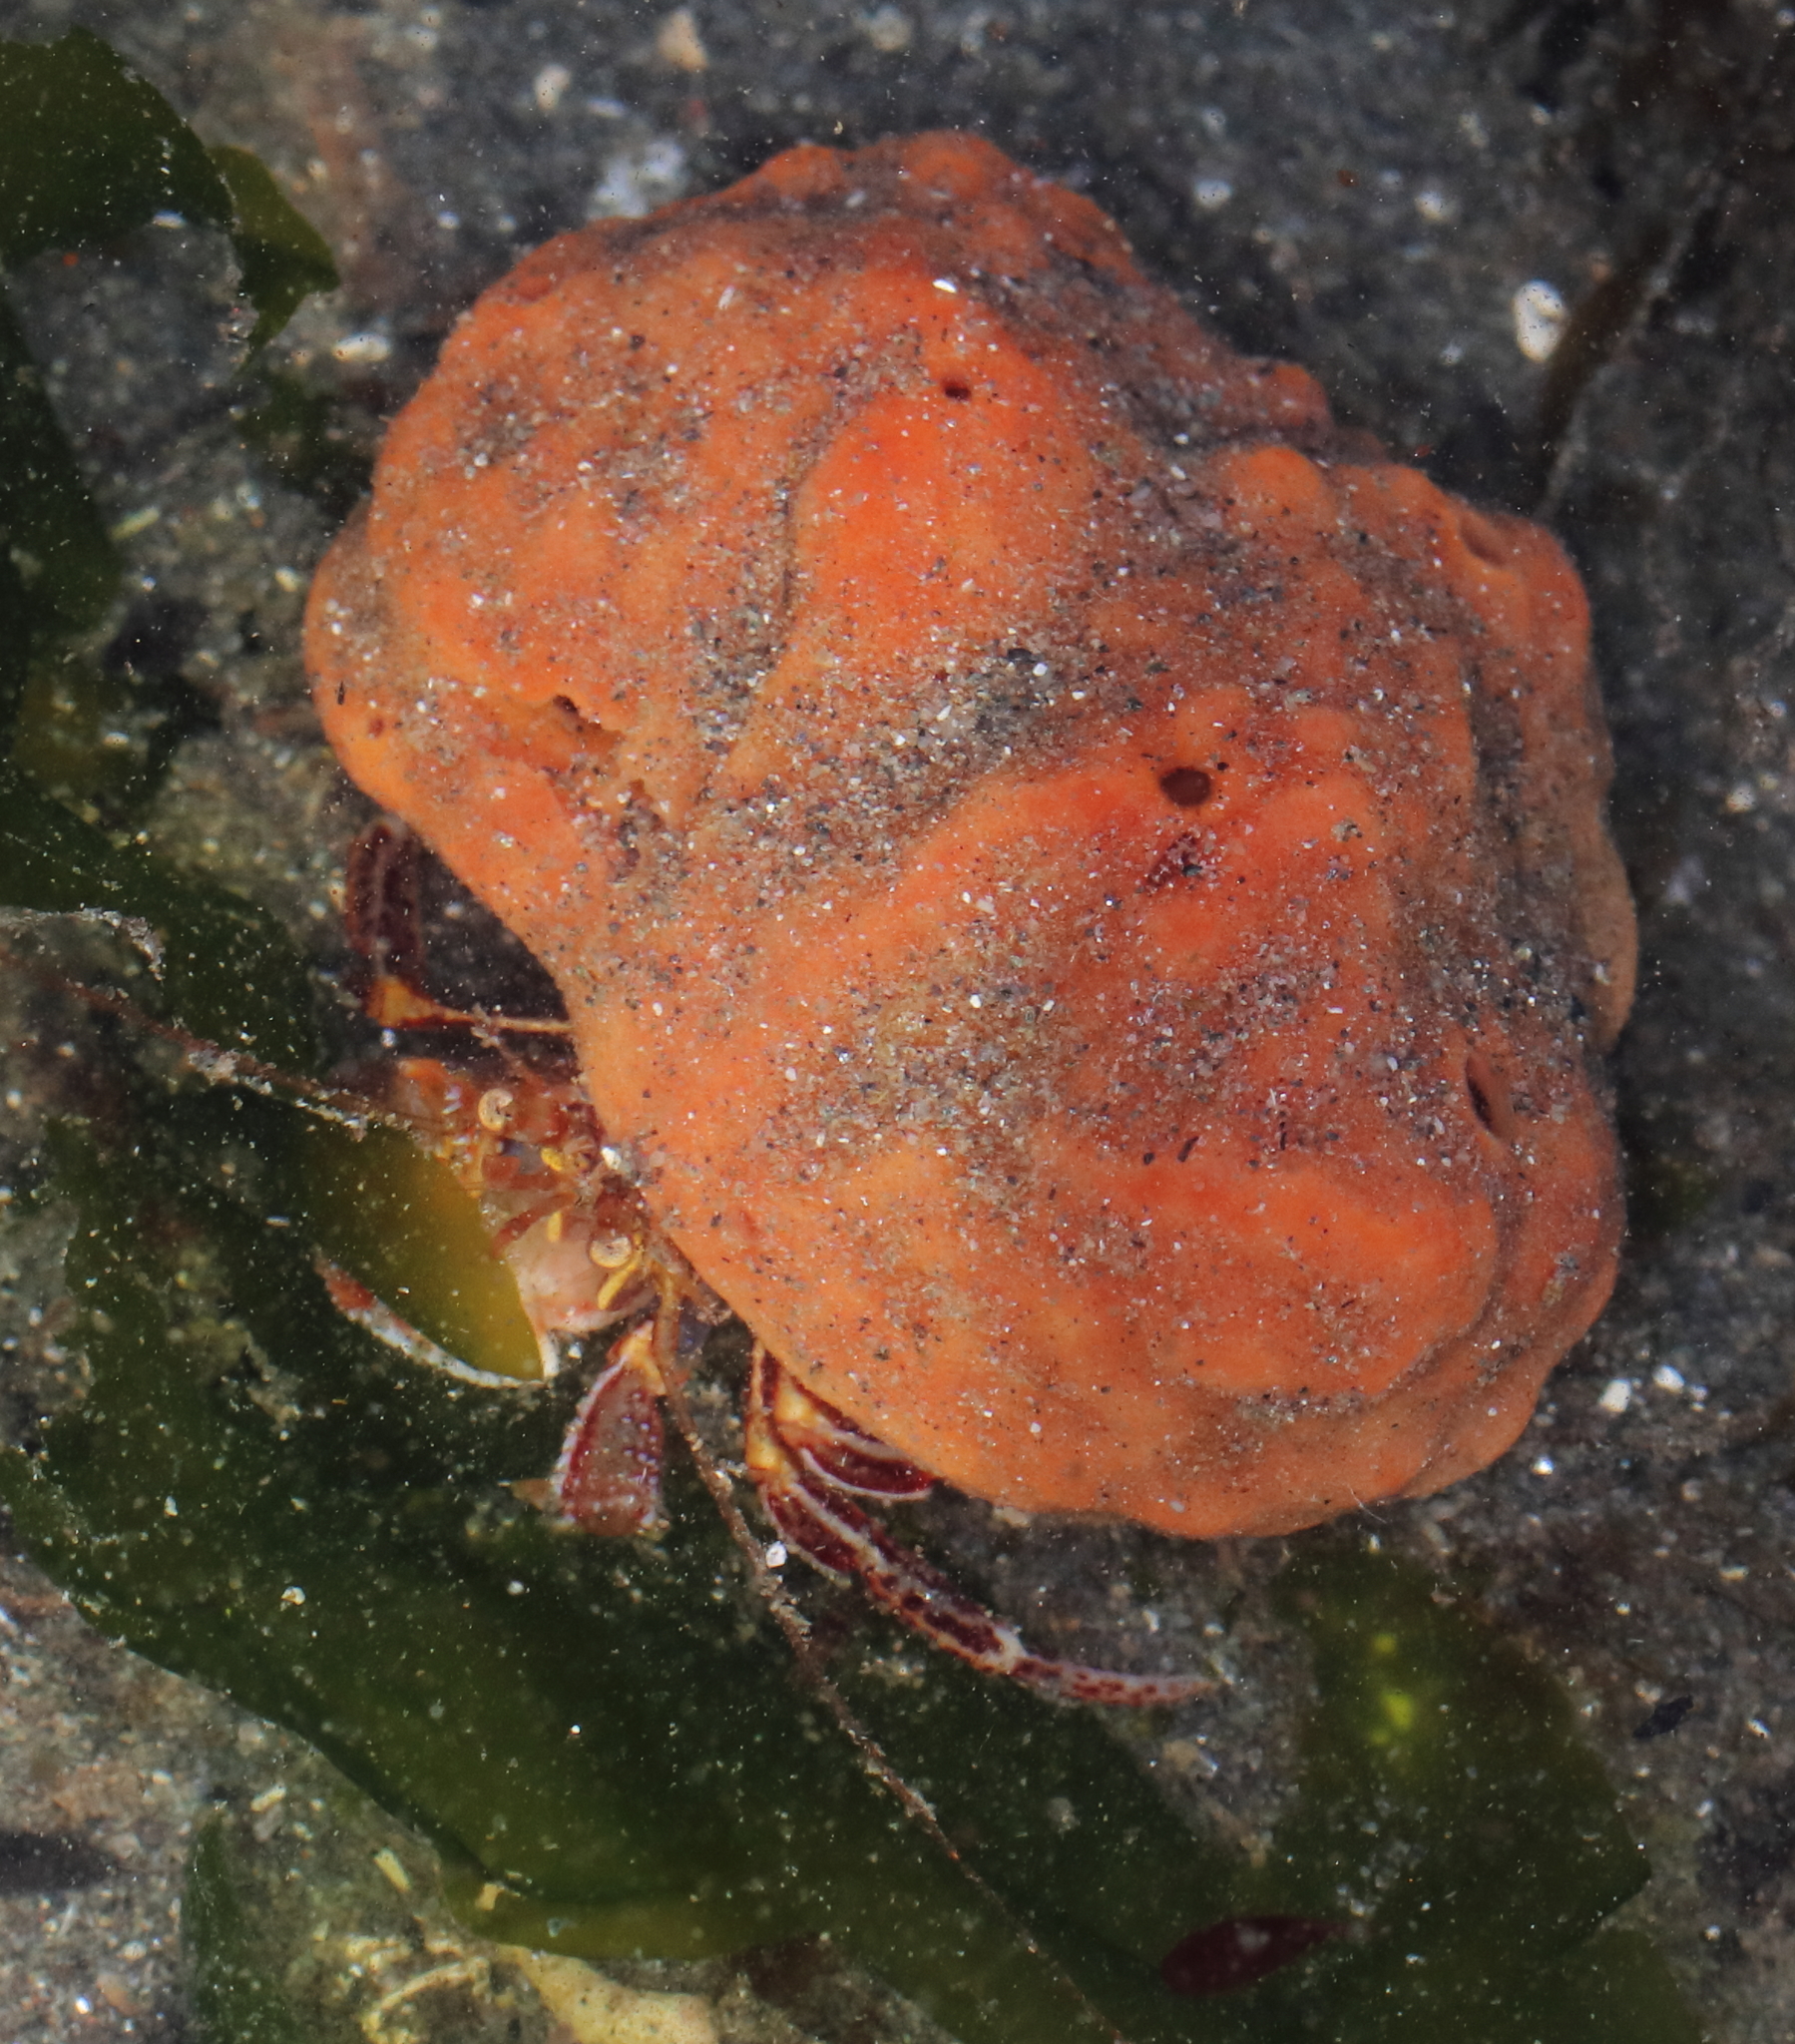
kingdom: Animalia
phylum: Arthropoda
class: Malacostraca
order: Decapoda
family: Paguridae
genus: Elassochirus
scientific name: Elassochirus tenuimanus
